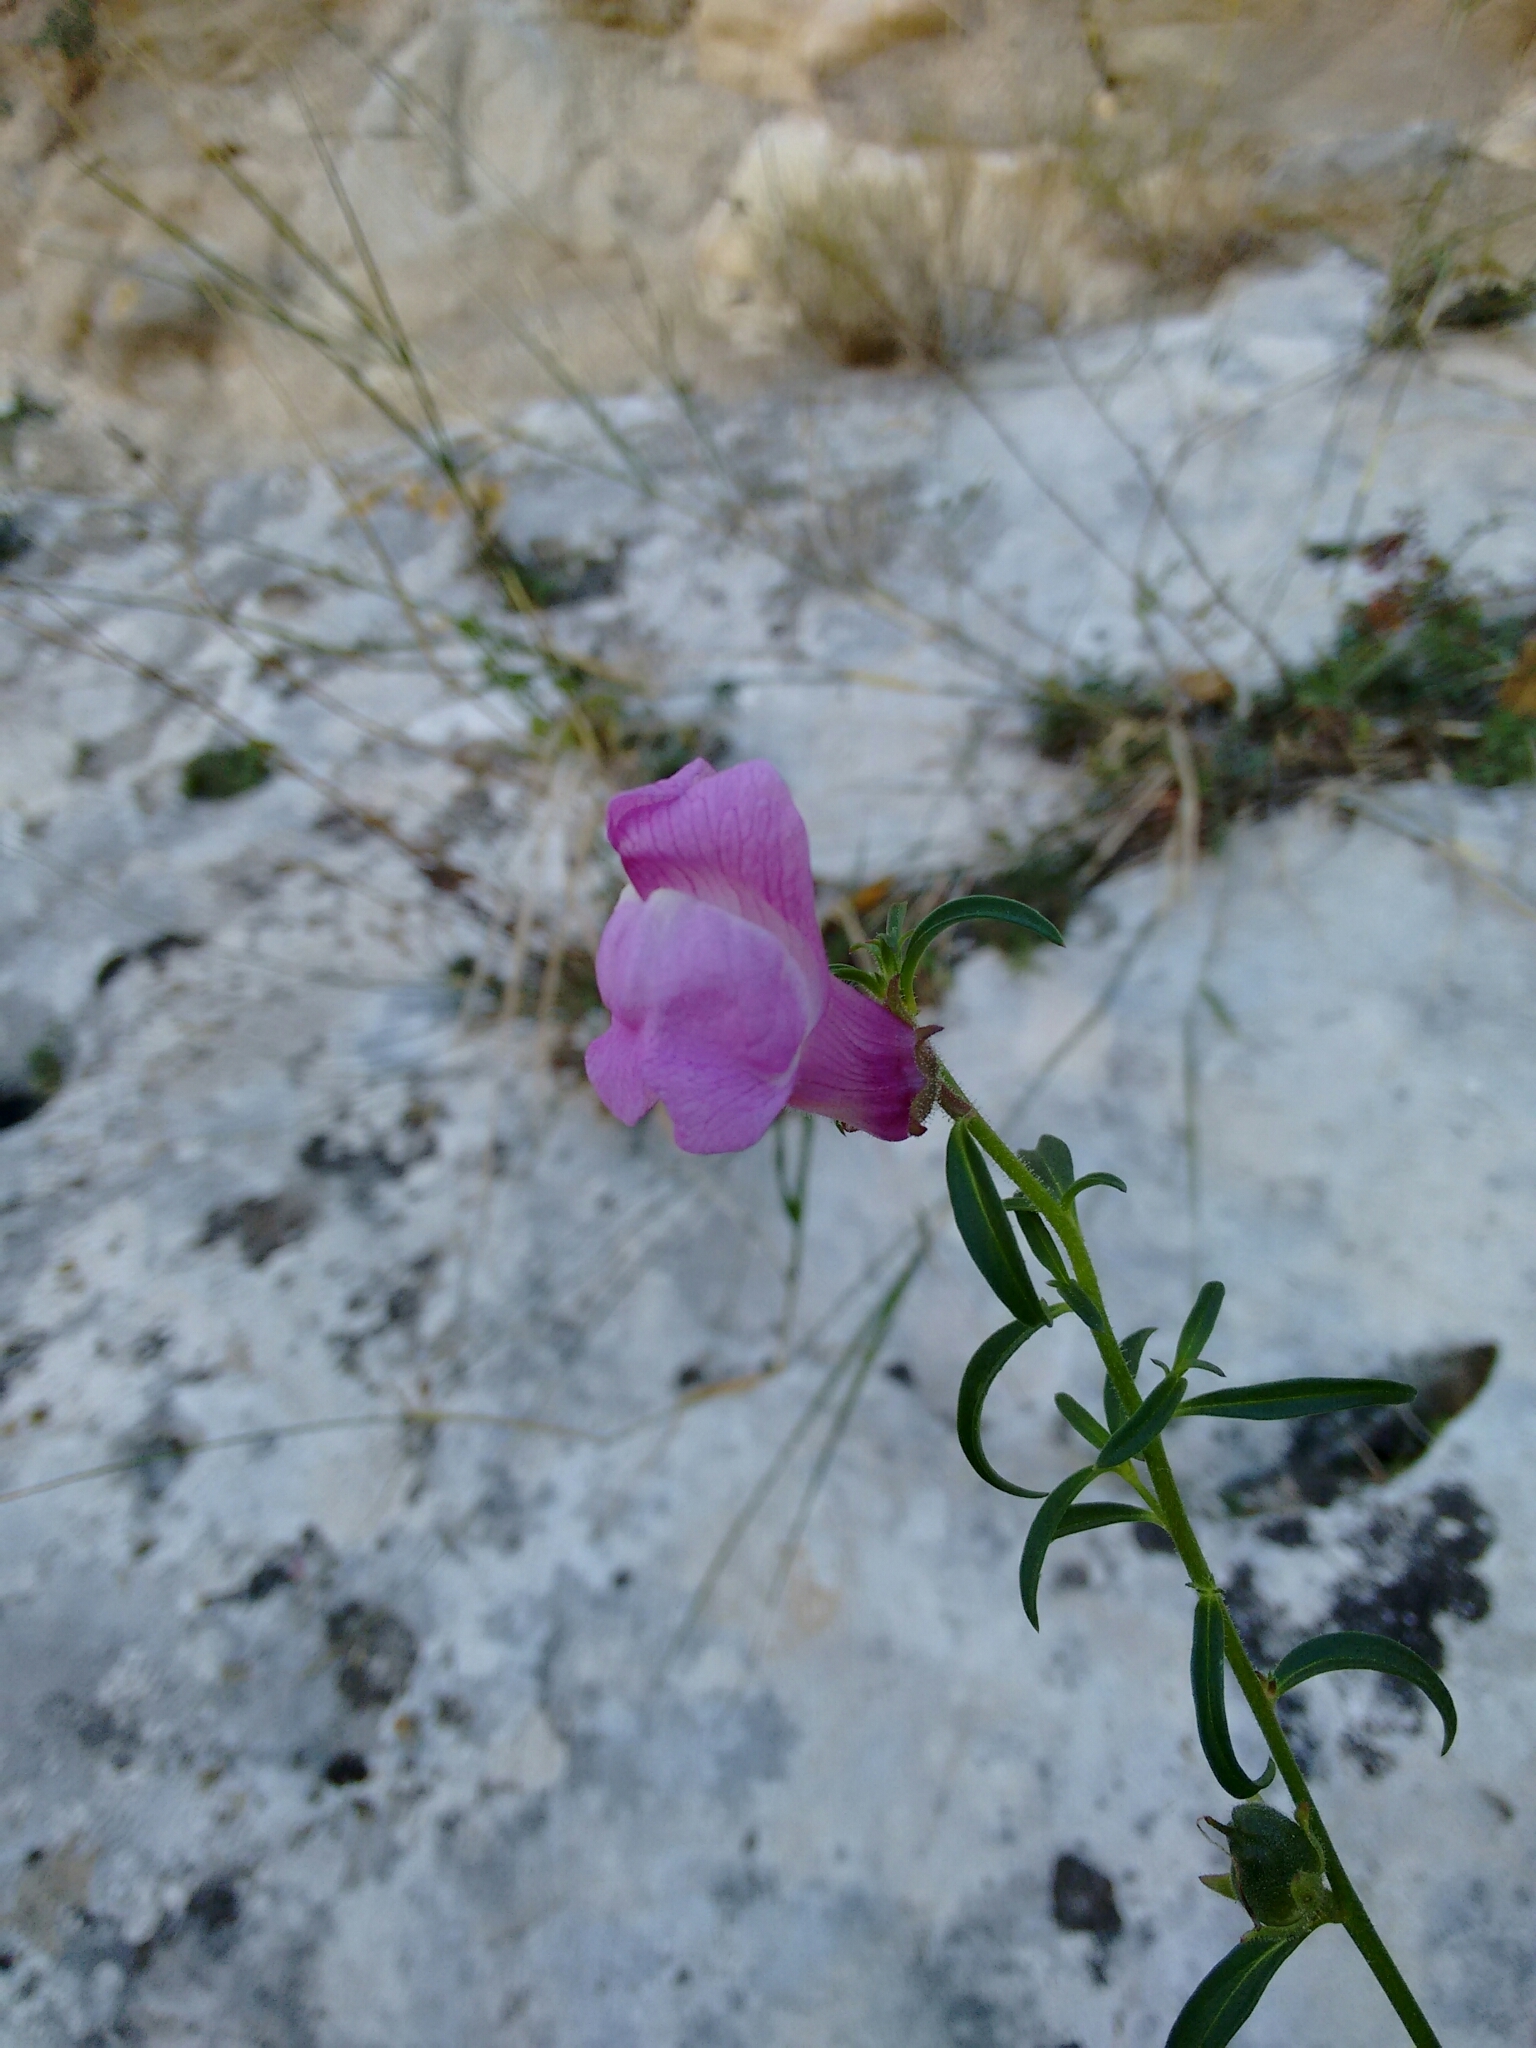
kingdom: Plantae
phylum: Tracheophyta
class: Magnoliopsida
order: Lamiales
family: Plantaginaceae
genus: Antirrhinum
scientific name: Antirrhinum controversum
